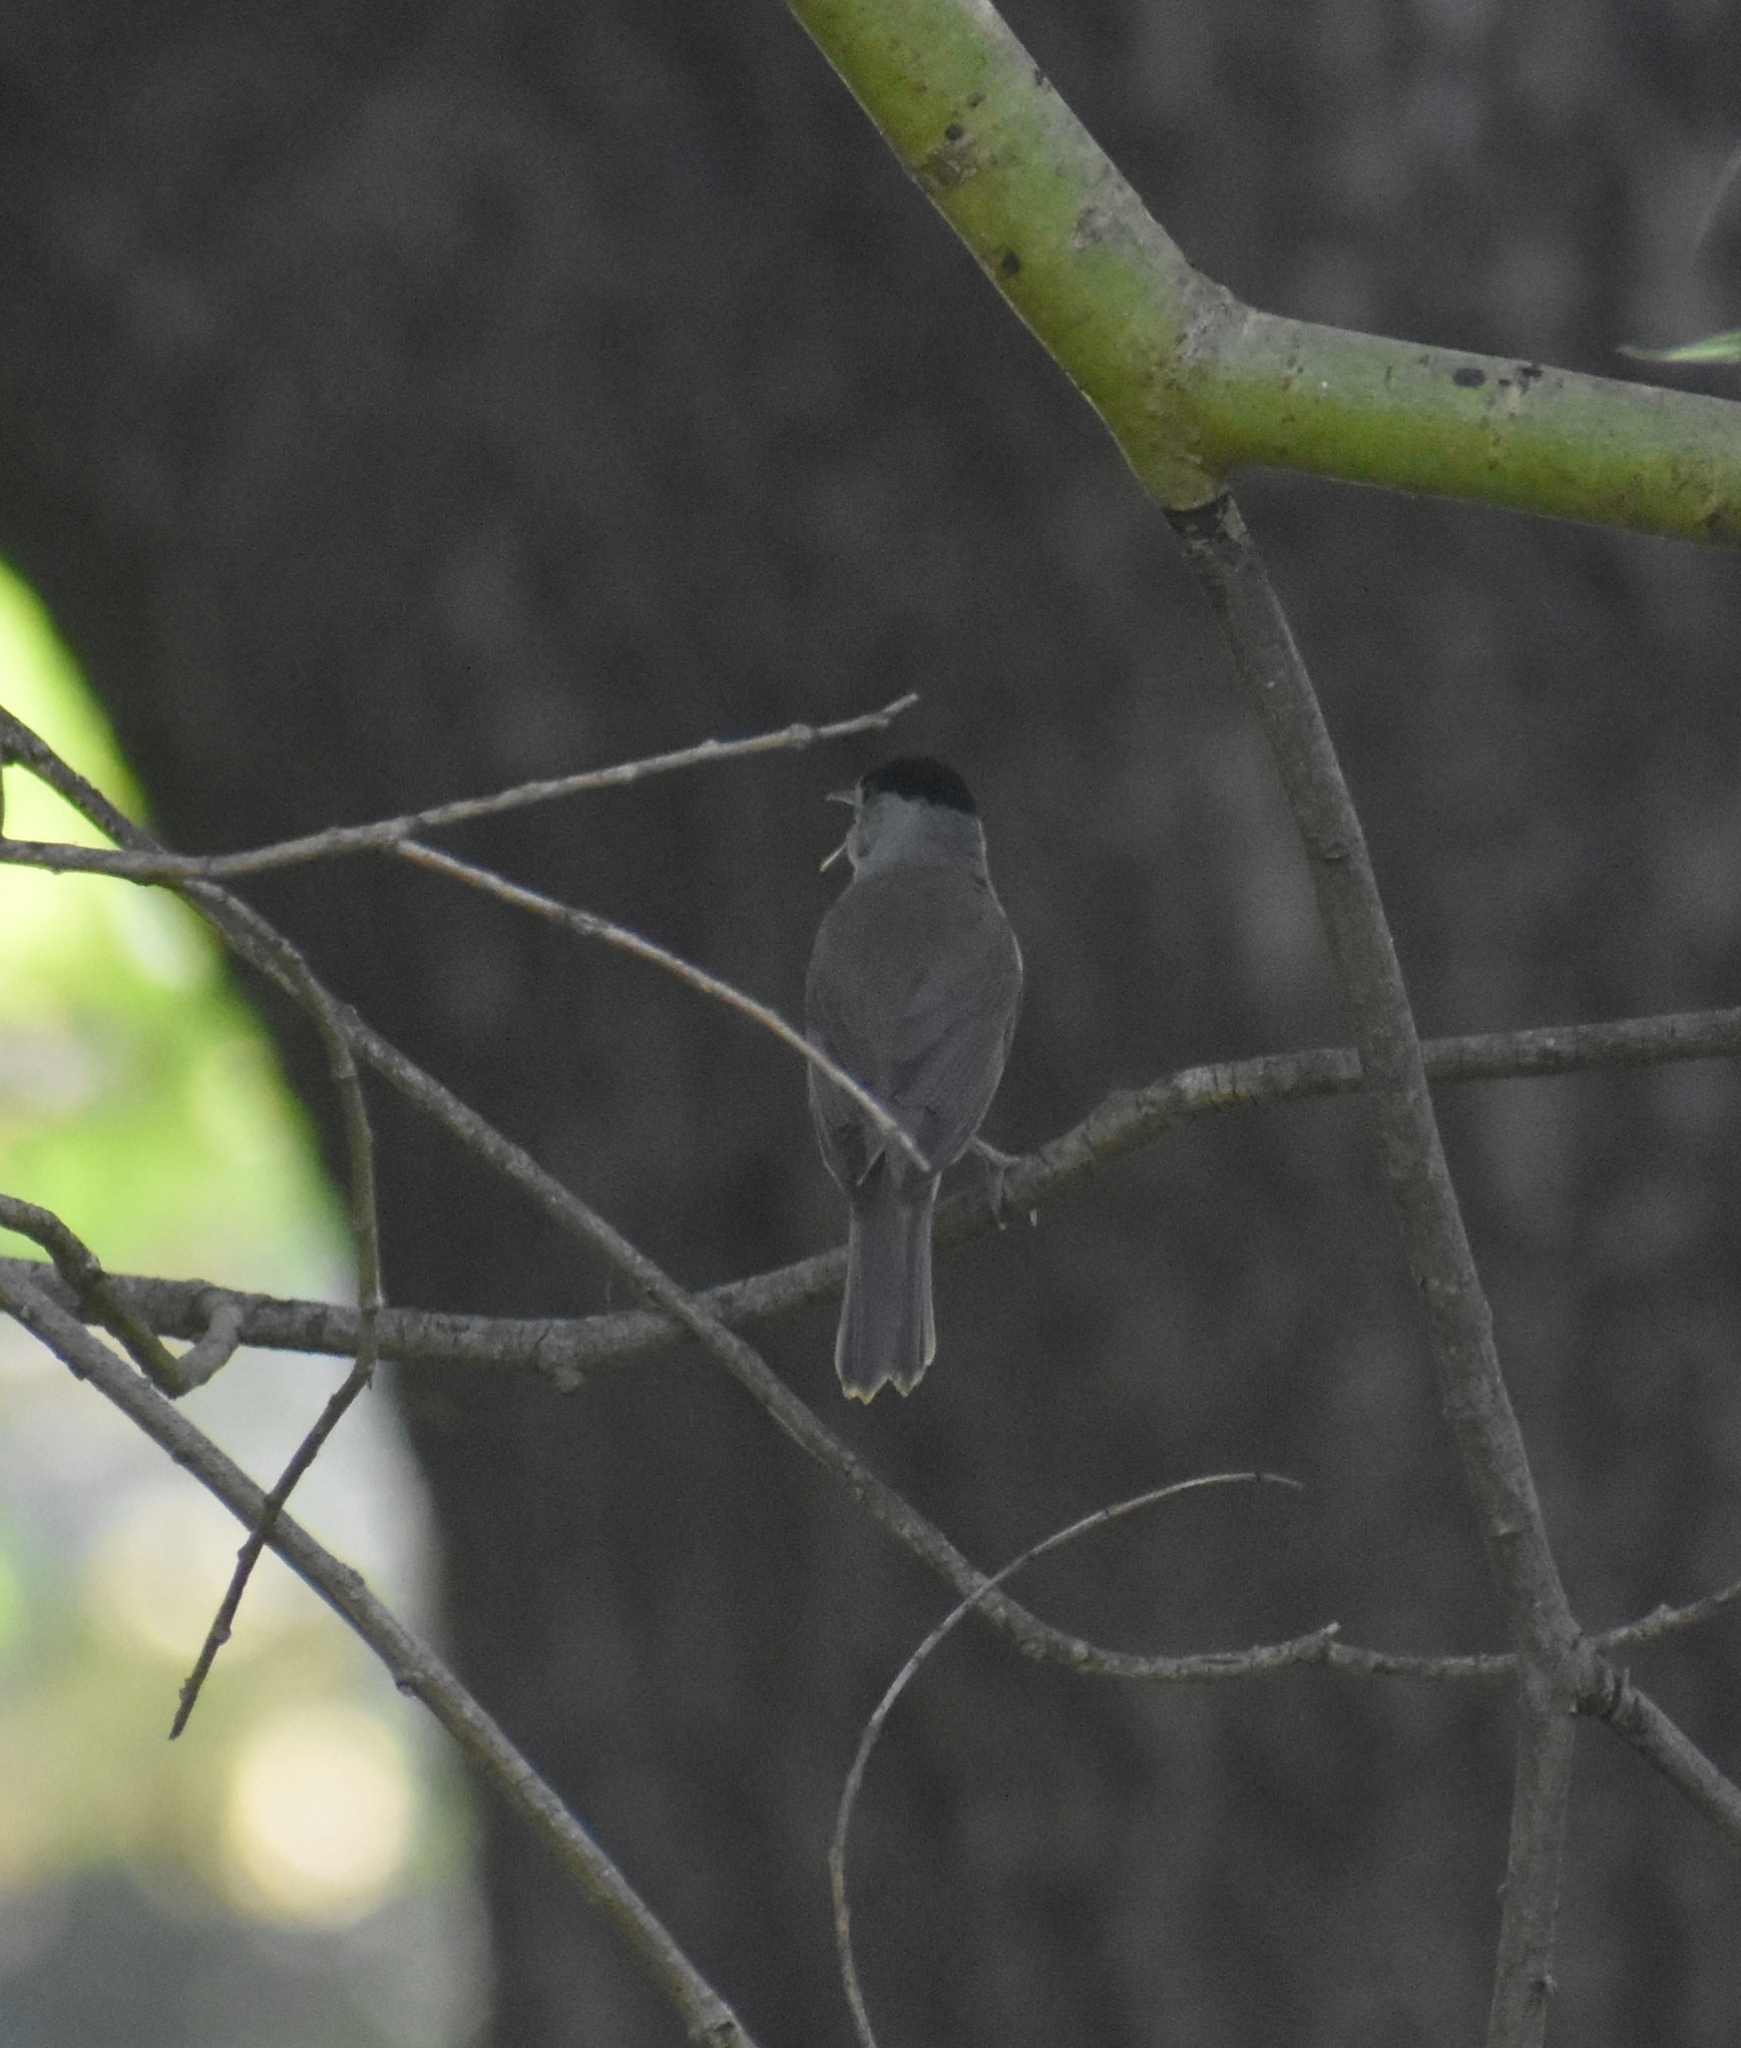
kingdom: Animalia
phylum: Chordata
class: Aves
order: Passeriformes
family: Sylviidae
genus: Sylvia
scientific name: Sylvia atricapilla
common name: Eurasian blackcap
